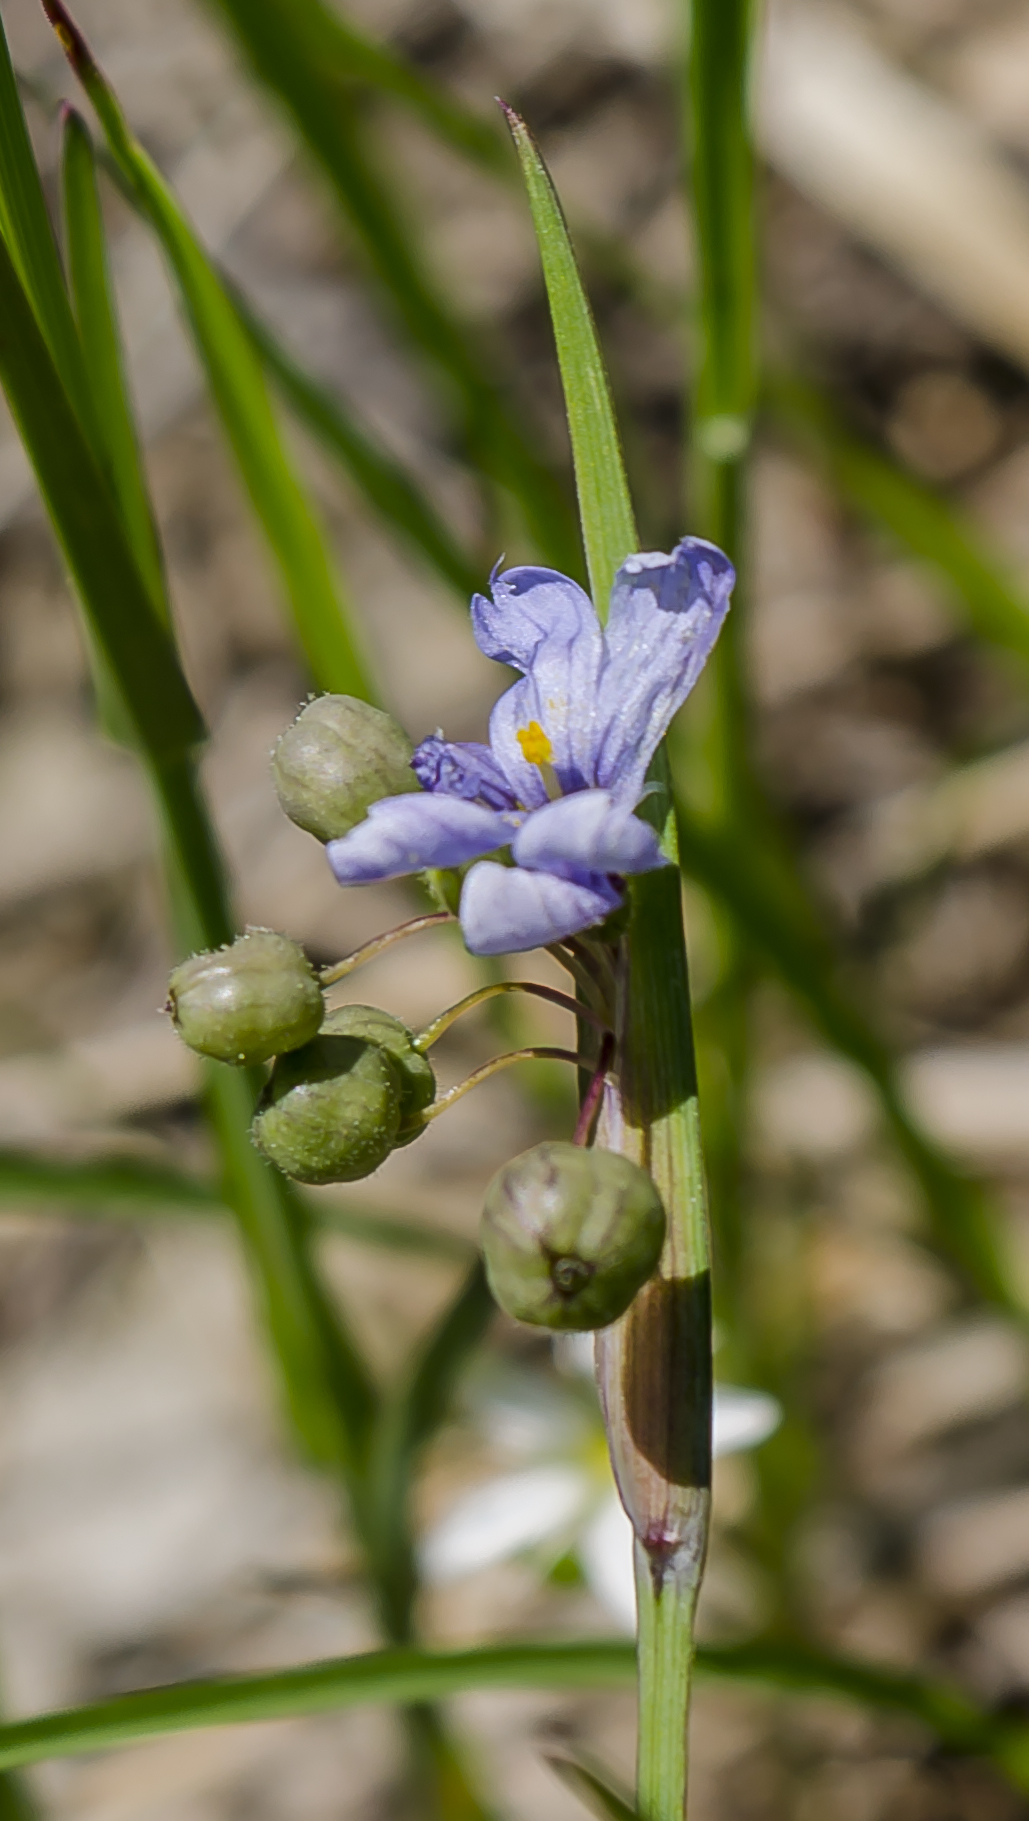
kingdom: Plantae
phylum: Tracheophyta
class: Liliopsida
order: Asparagales
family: Iridaceae
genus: Sisyrinchium
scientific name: Sisyrinchium campestre
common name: Prairie blue-eyed-grass
